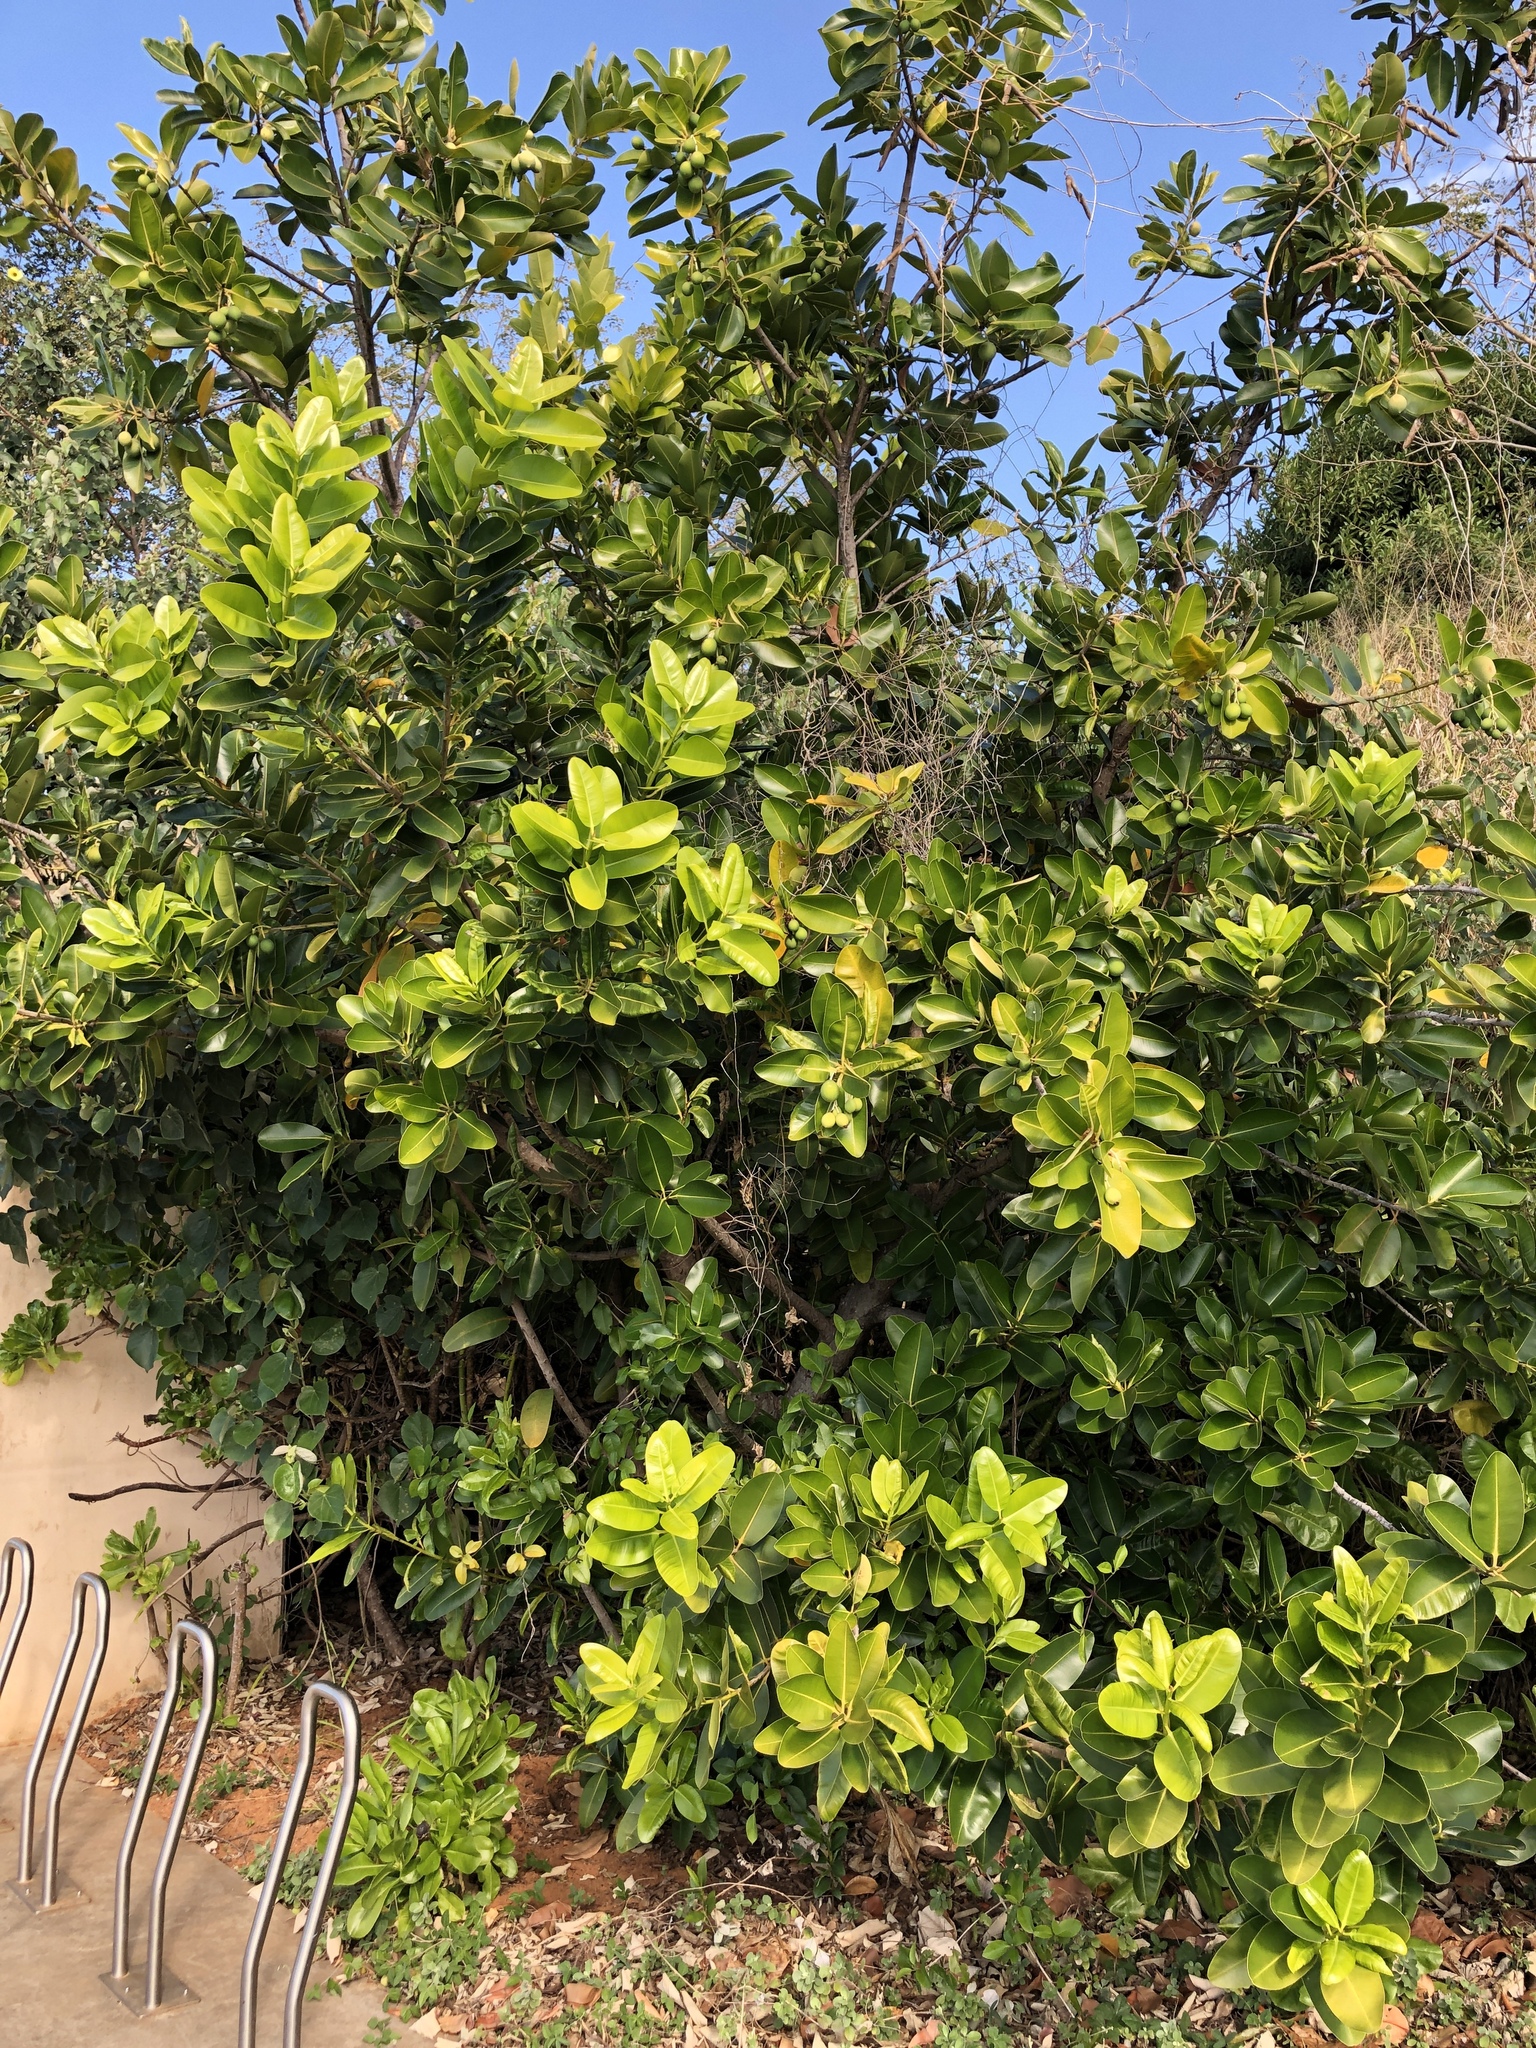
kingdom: Plantae
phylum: Tracheophyta
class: Magnoliopsida
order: Malpighiales
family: Calophyllaceae
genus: Calophyllum
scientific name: Calophyllum inophyllum
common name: Alexandrian laurel
